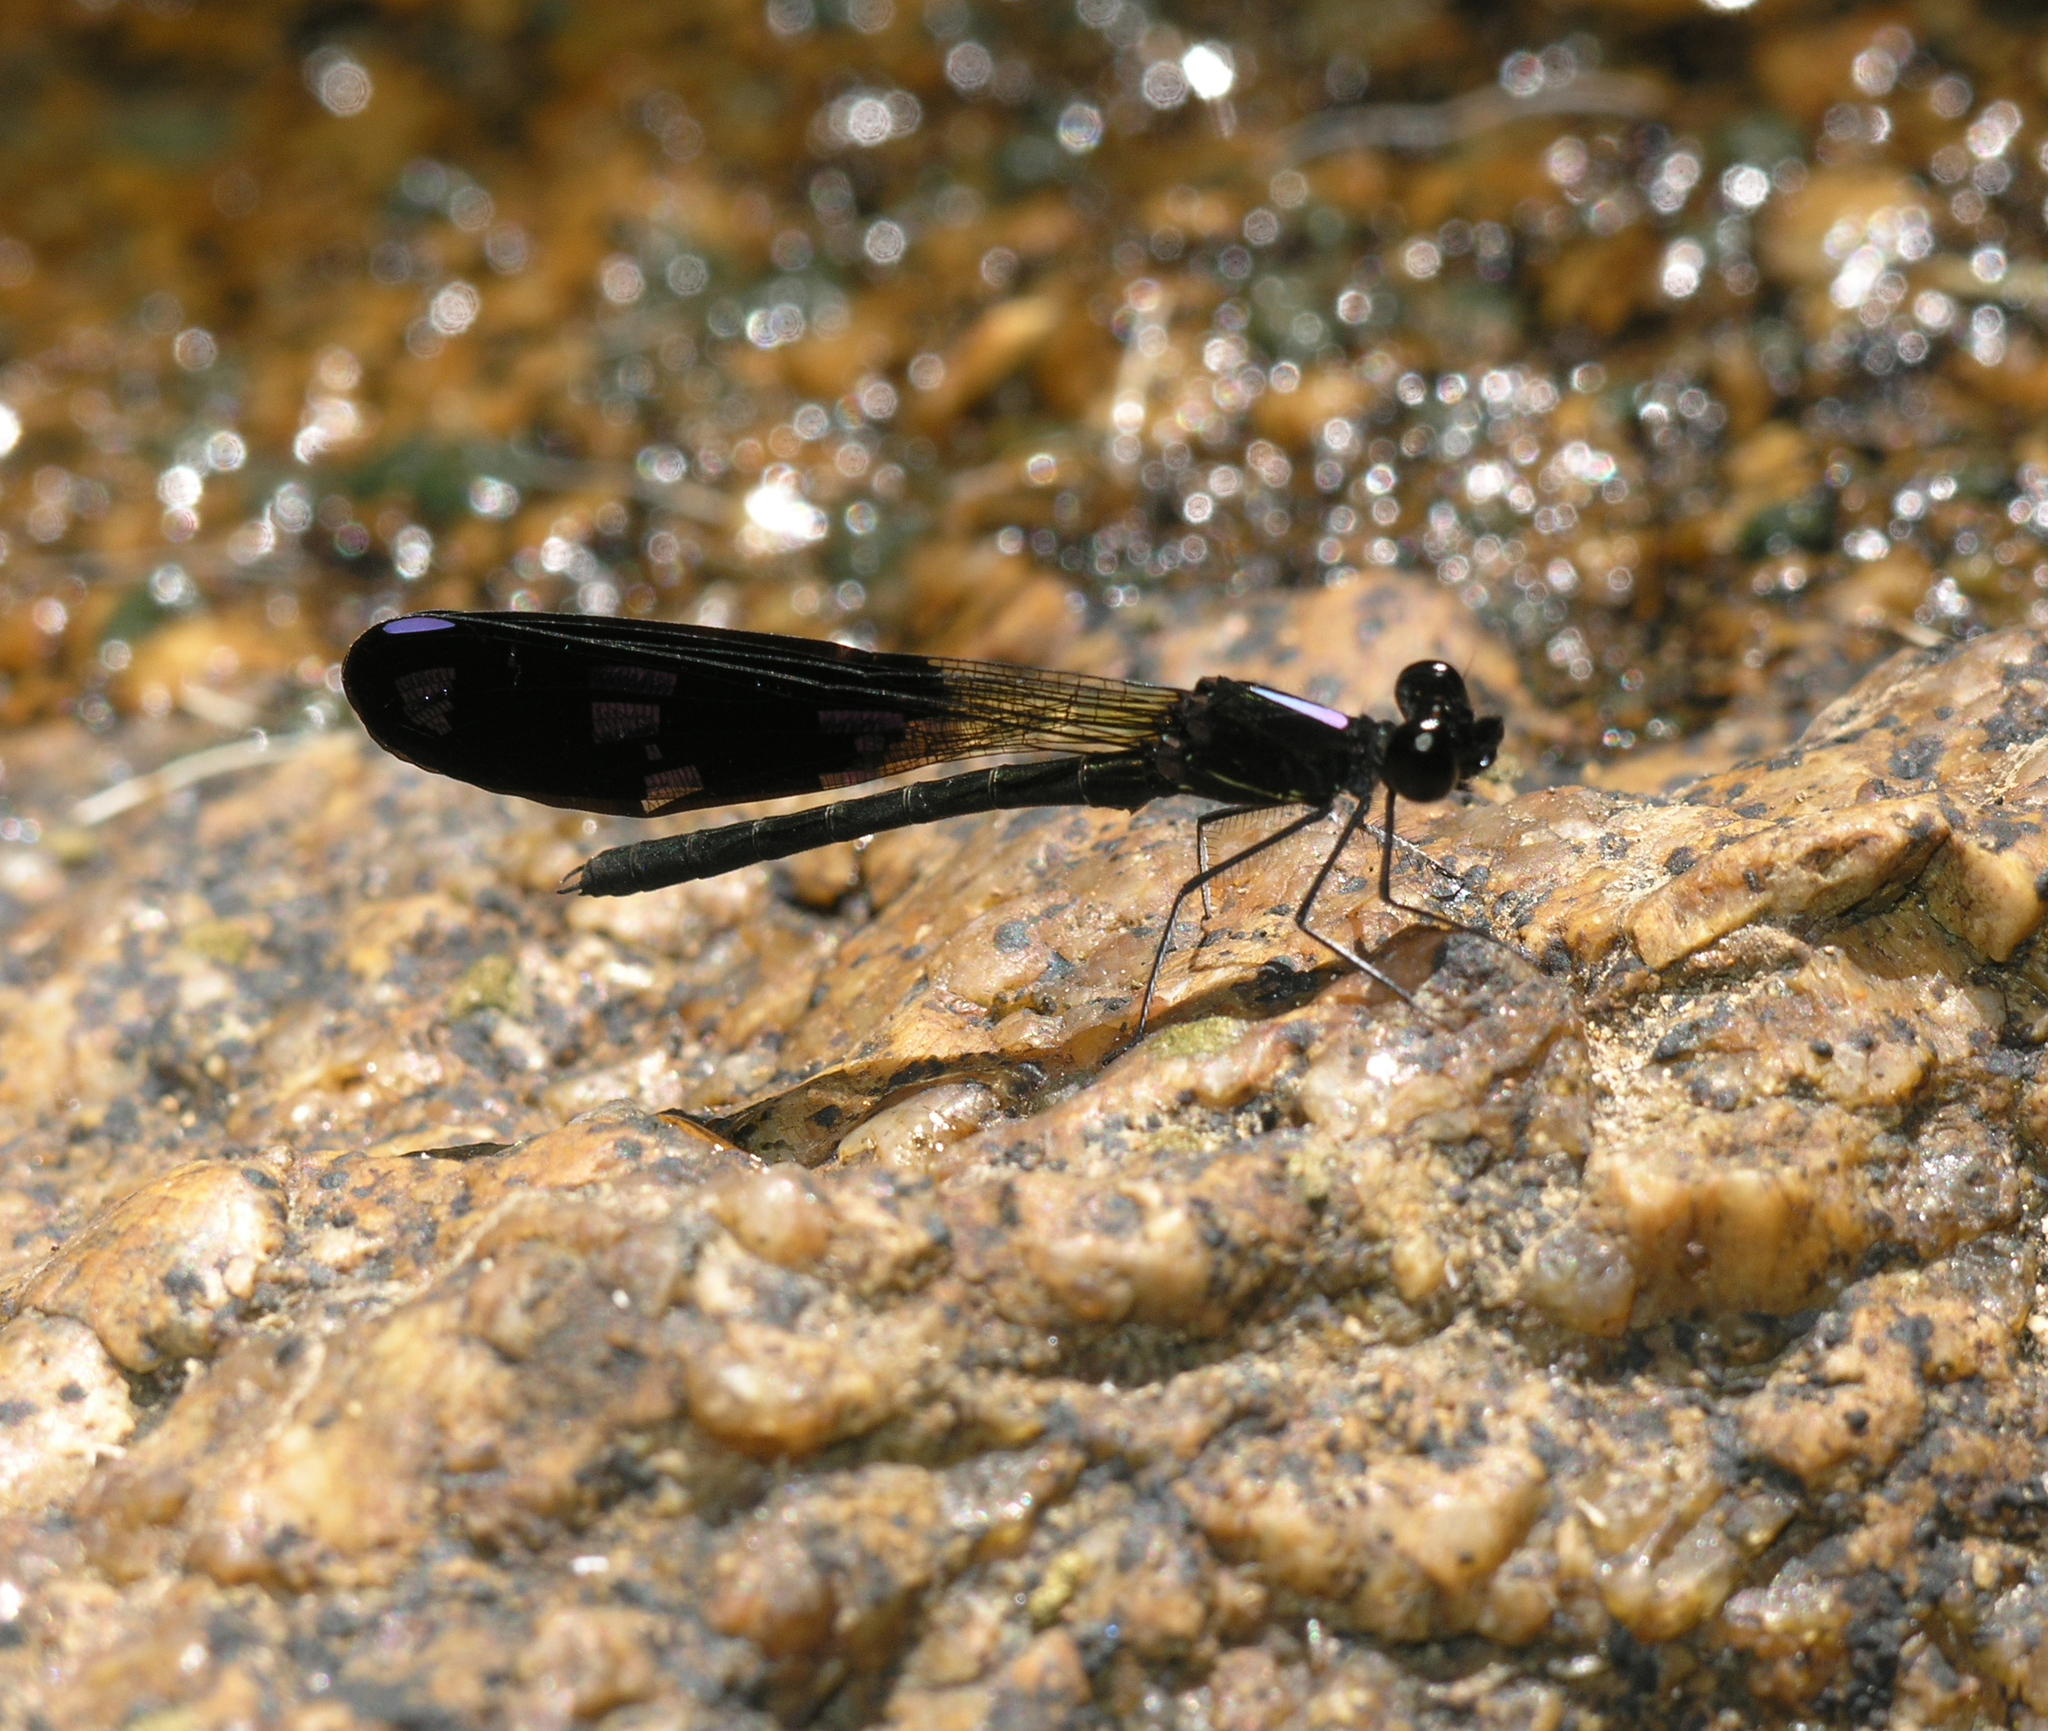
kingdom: Animalia
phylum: Arthropoda
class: Insecta
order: Odonata
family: Chlorocyphidae
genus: Aristocypha
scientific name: Aristocypha fenestrella
